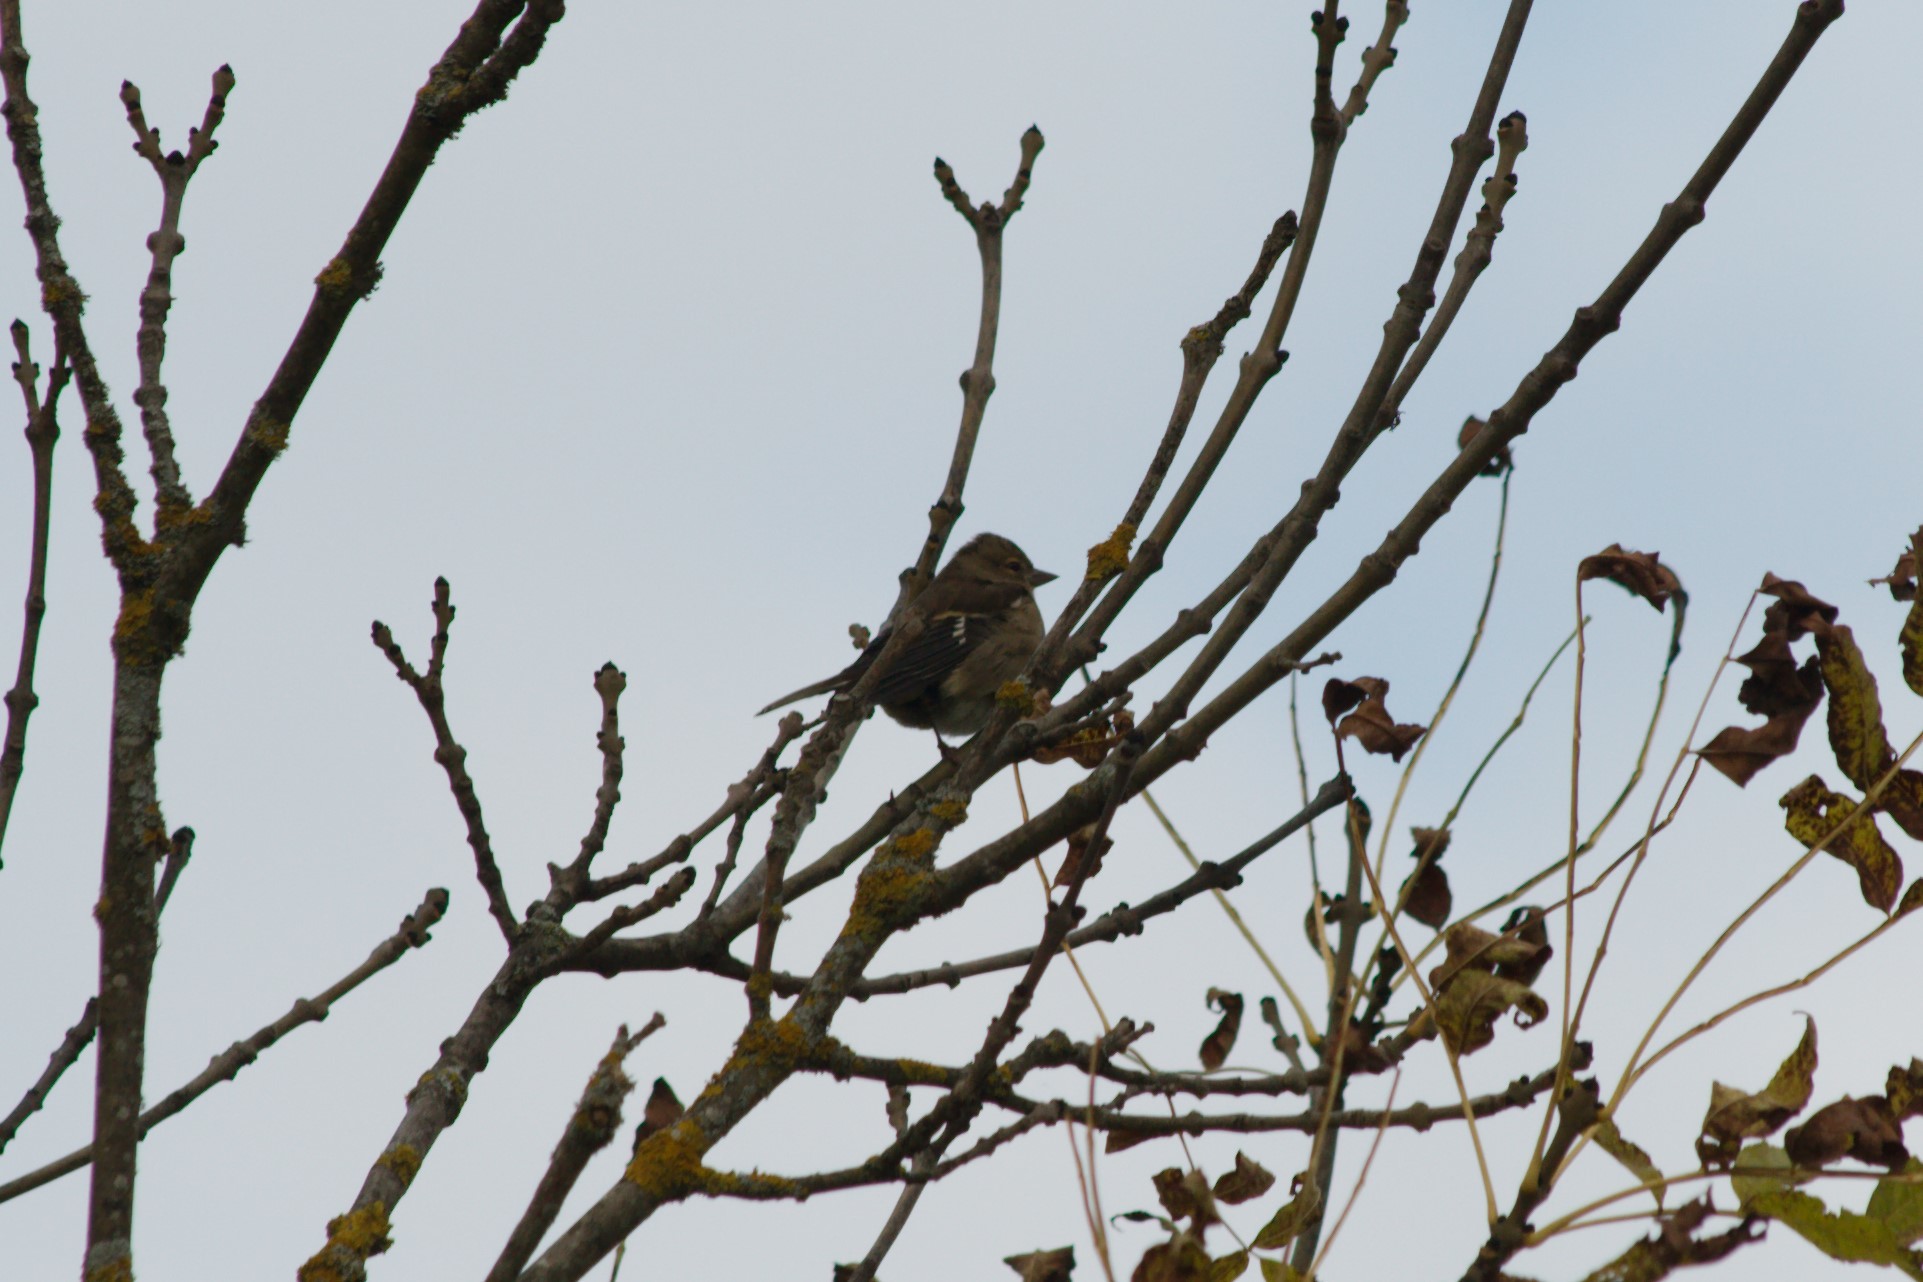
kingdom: Animalia
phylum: Chordata
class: Aves
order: Passeriformes
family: Fringillidae
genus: Fringilla
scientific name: Fringilla coelebs
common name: Common chaffinch
